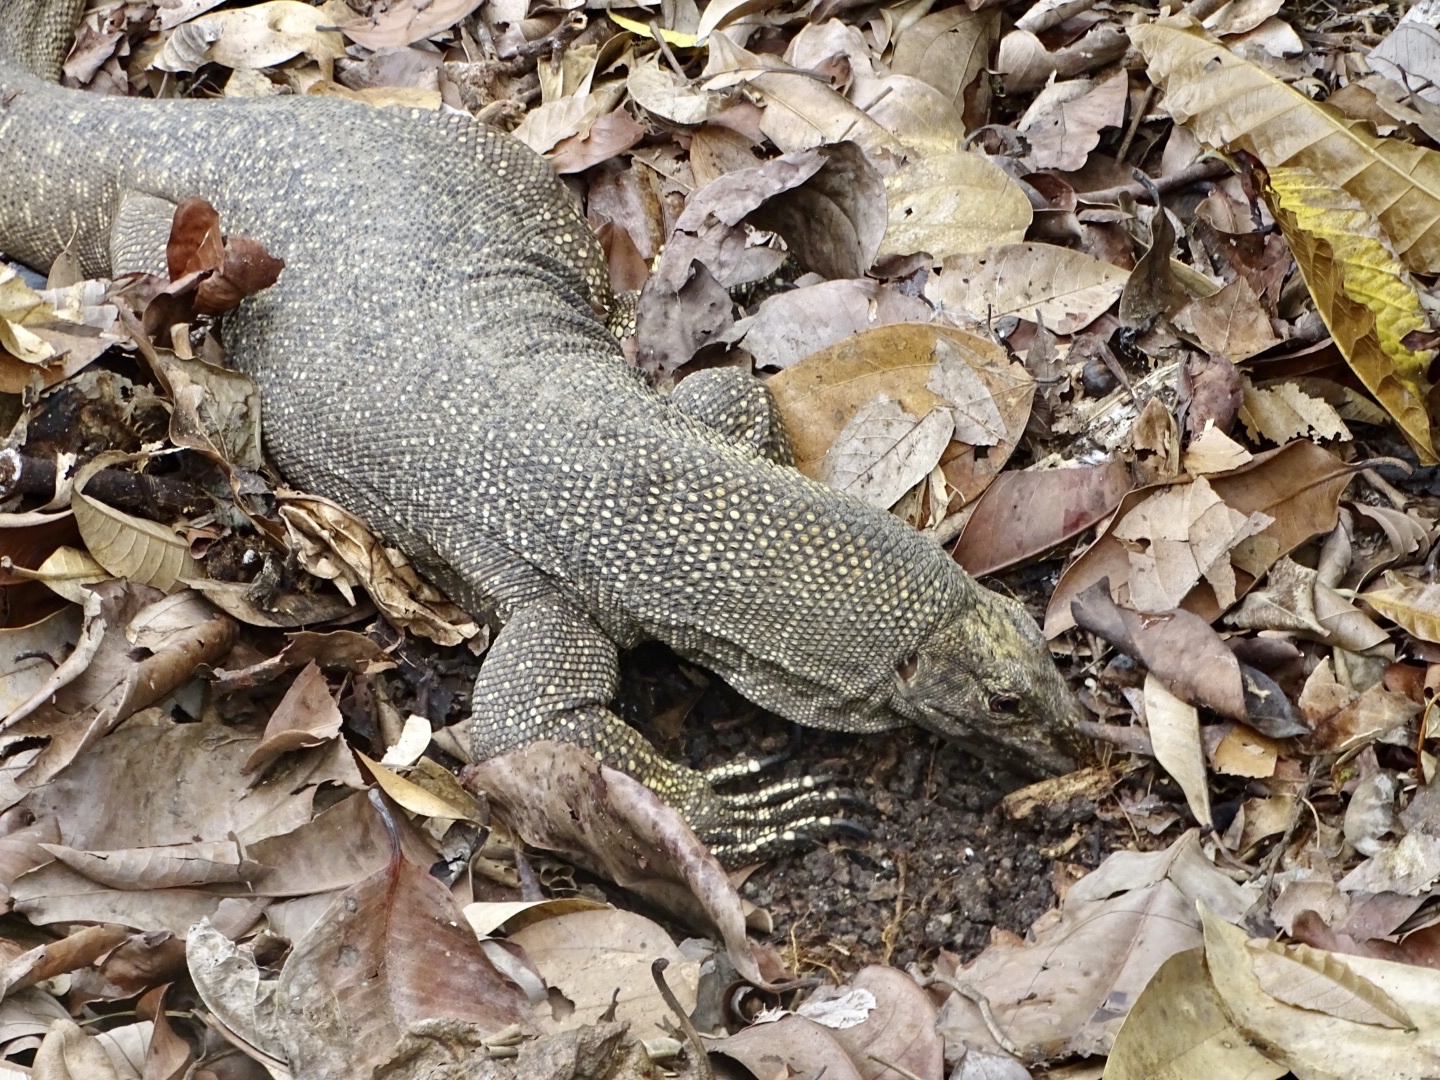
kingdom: Animalia
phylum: Chordata
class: Squamata
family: Varanidae
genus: Varanus
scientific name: Varanus nebulosus
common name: Clouded monitor
